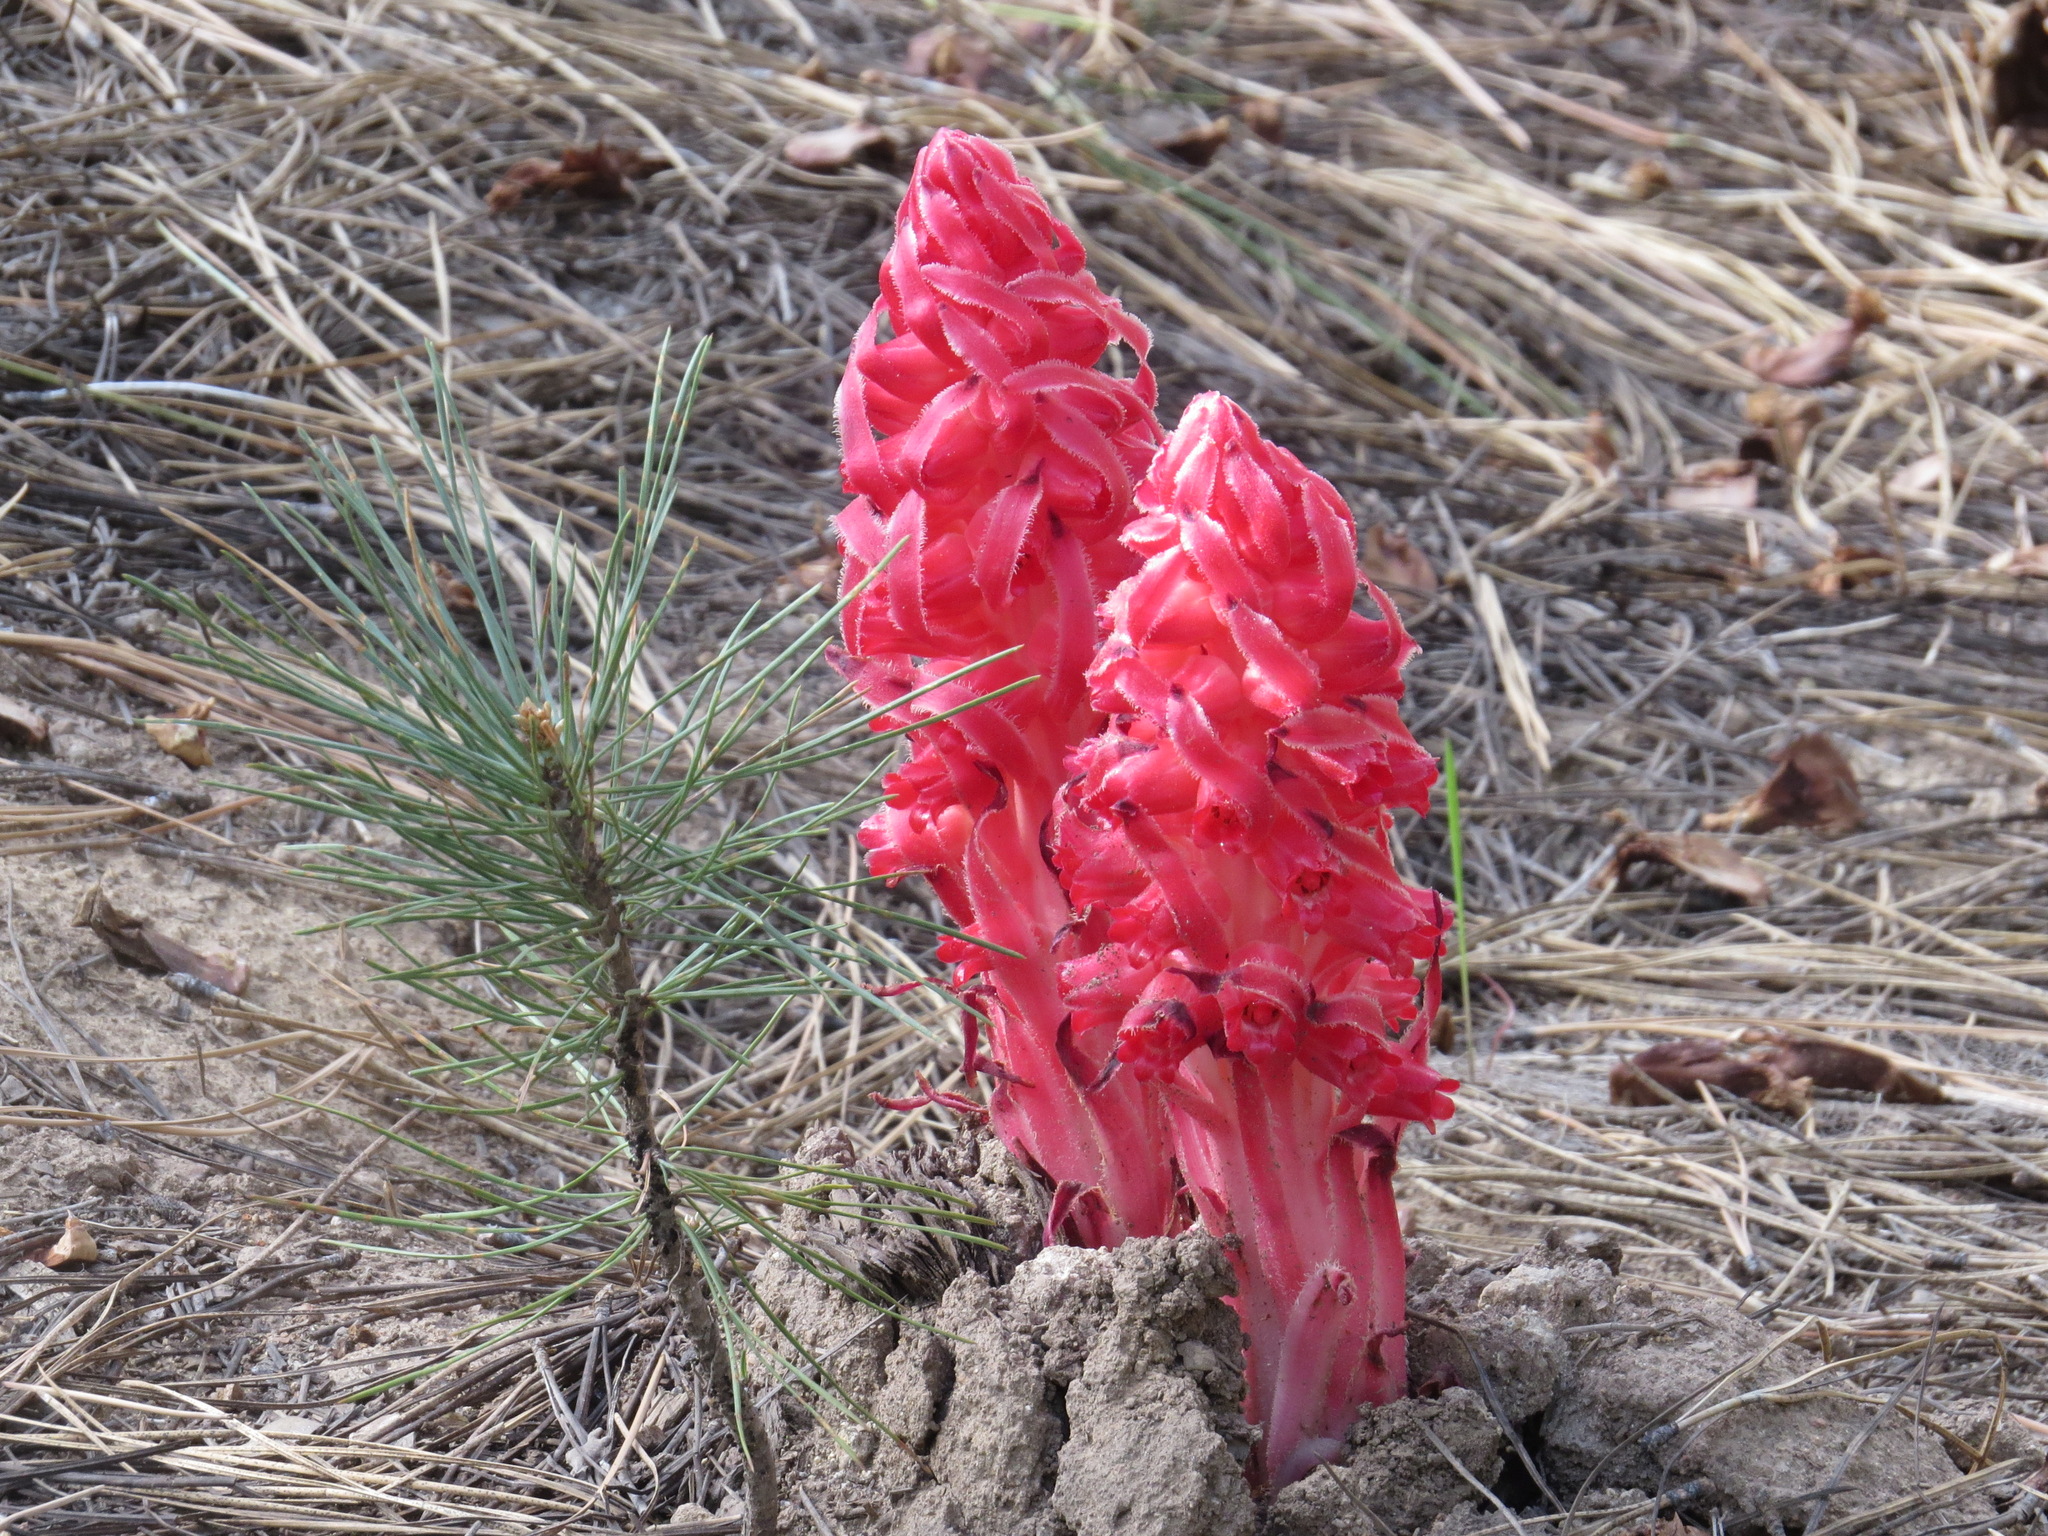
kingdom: Plantae
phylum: Tracheophyta
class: Magnoliopsida
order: Ericales
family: Ericaceae
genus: Sarcodes
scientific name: Sarcodes sanguinea
